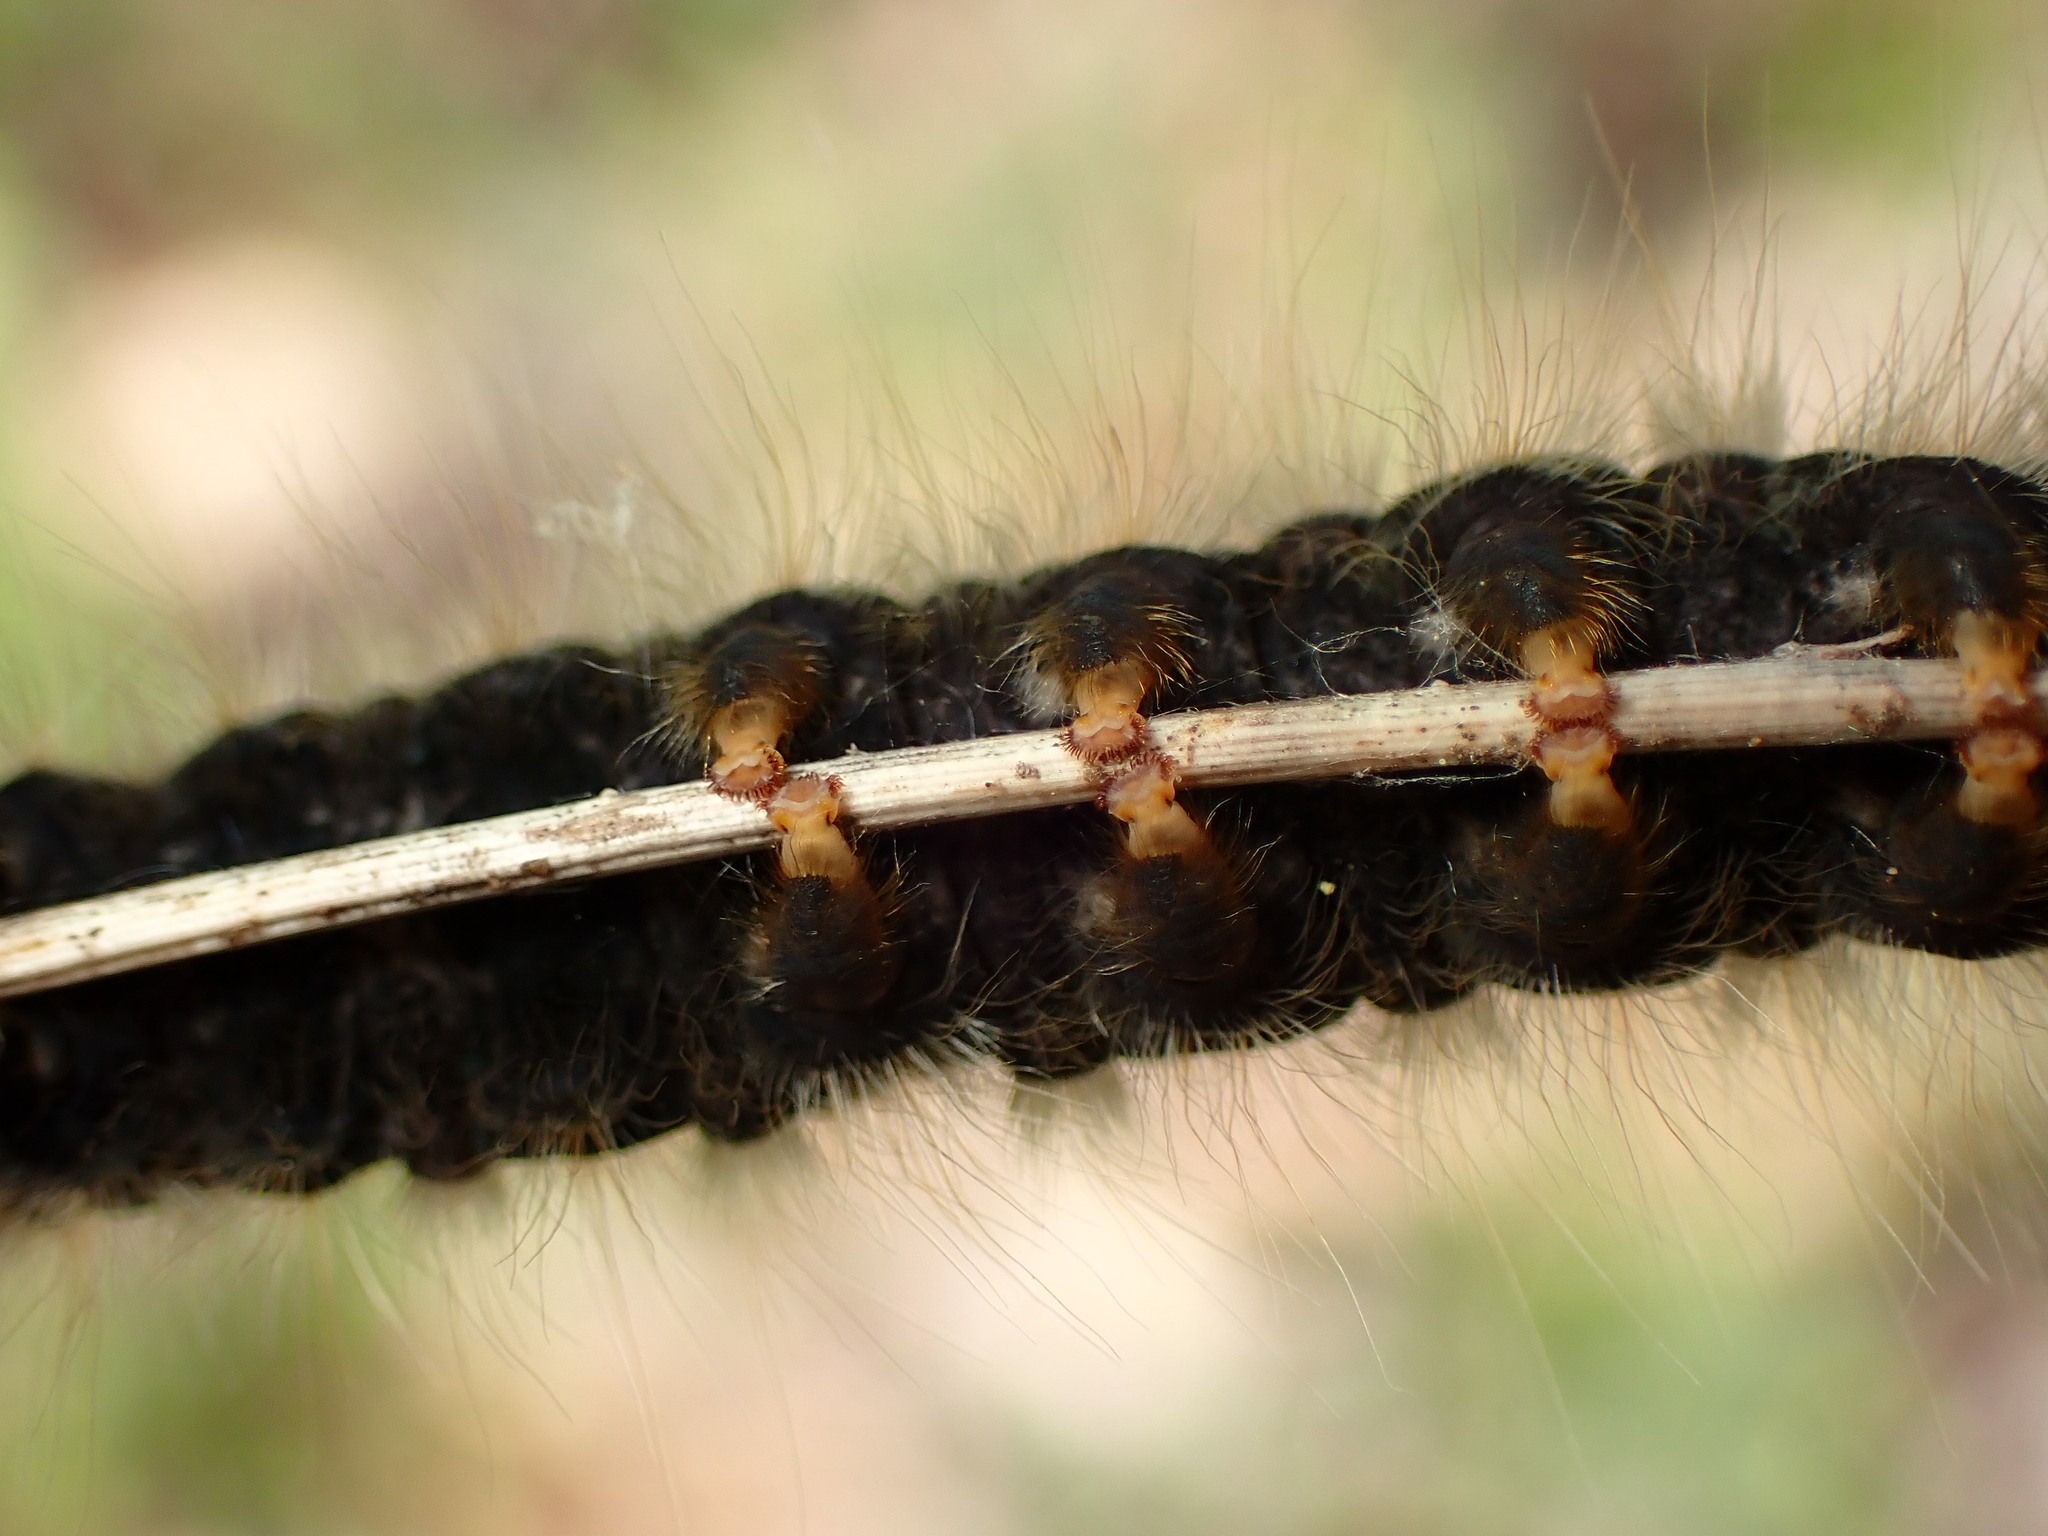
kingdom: Animalia
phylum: Arthropoda
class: Insecta
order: Lepidoptera
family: Lasiocampidae
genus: Malacosoma
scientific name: Malacosoma constricta
